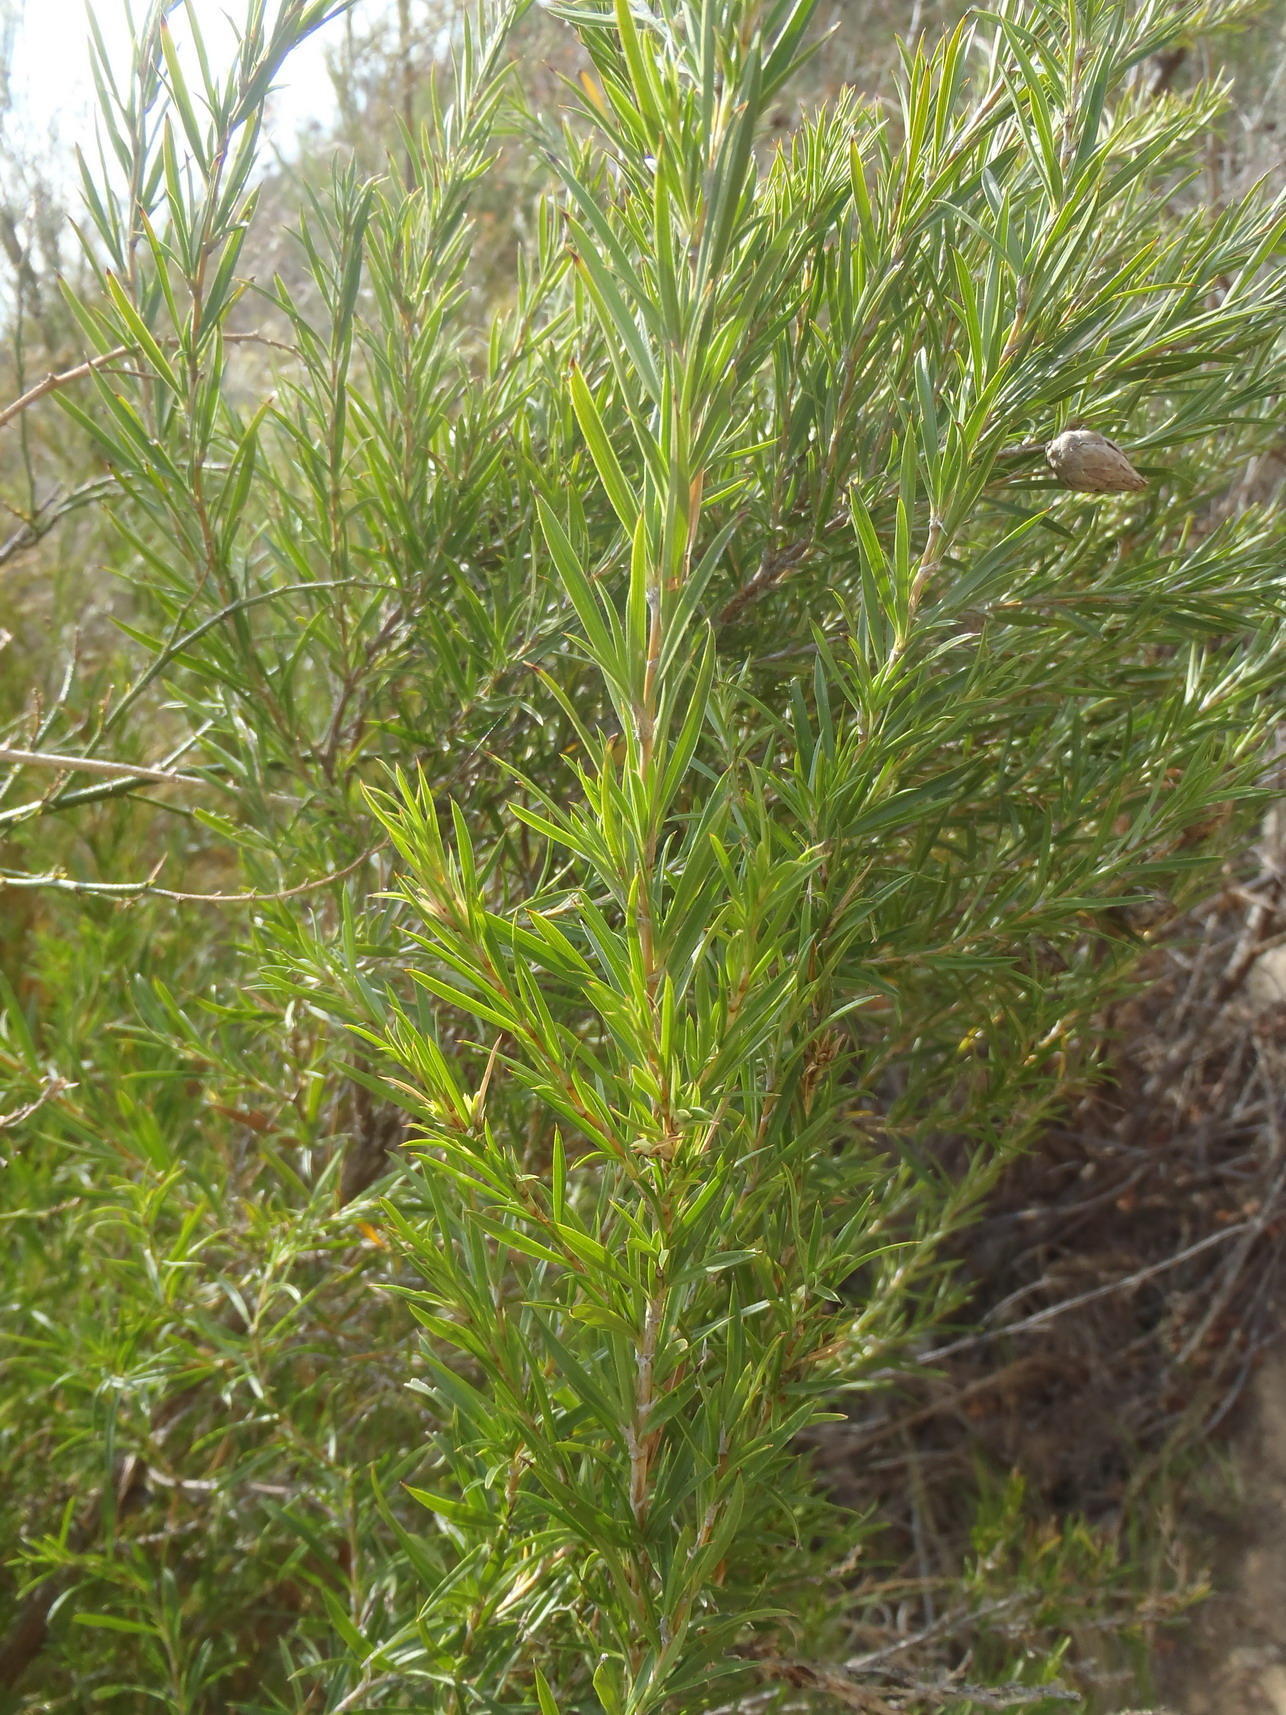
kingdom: Plantae
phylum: Tracheophyta
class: Magnoliopsida
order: Rosales
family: Rosaceae
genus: Cliffortia
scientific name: Cliffortia strobilifera
